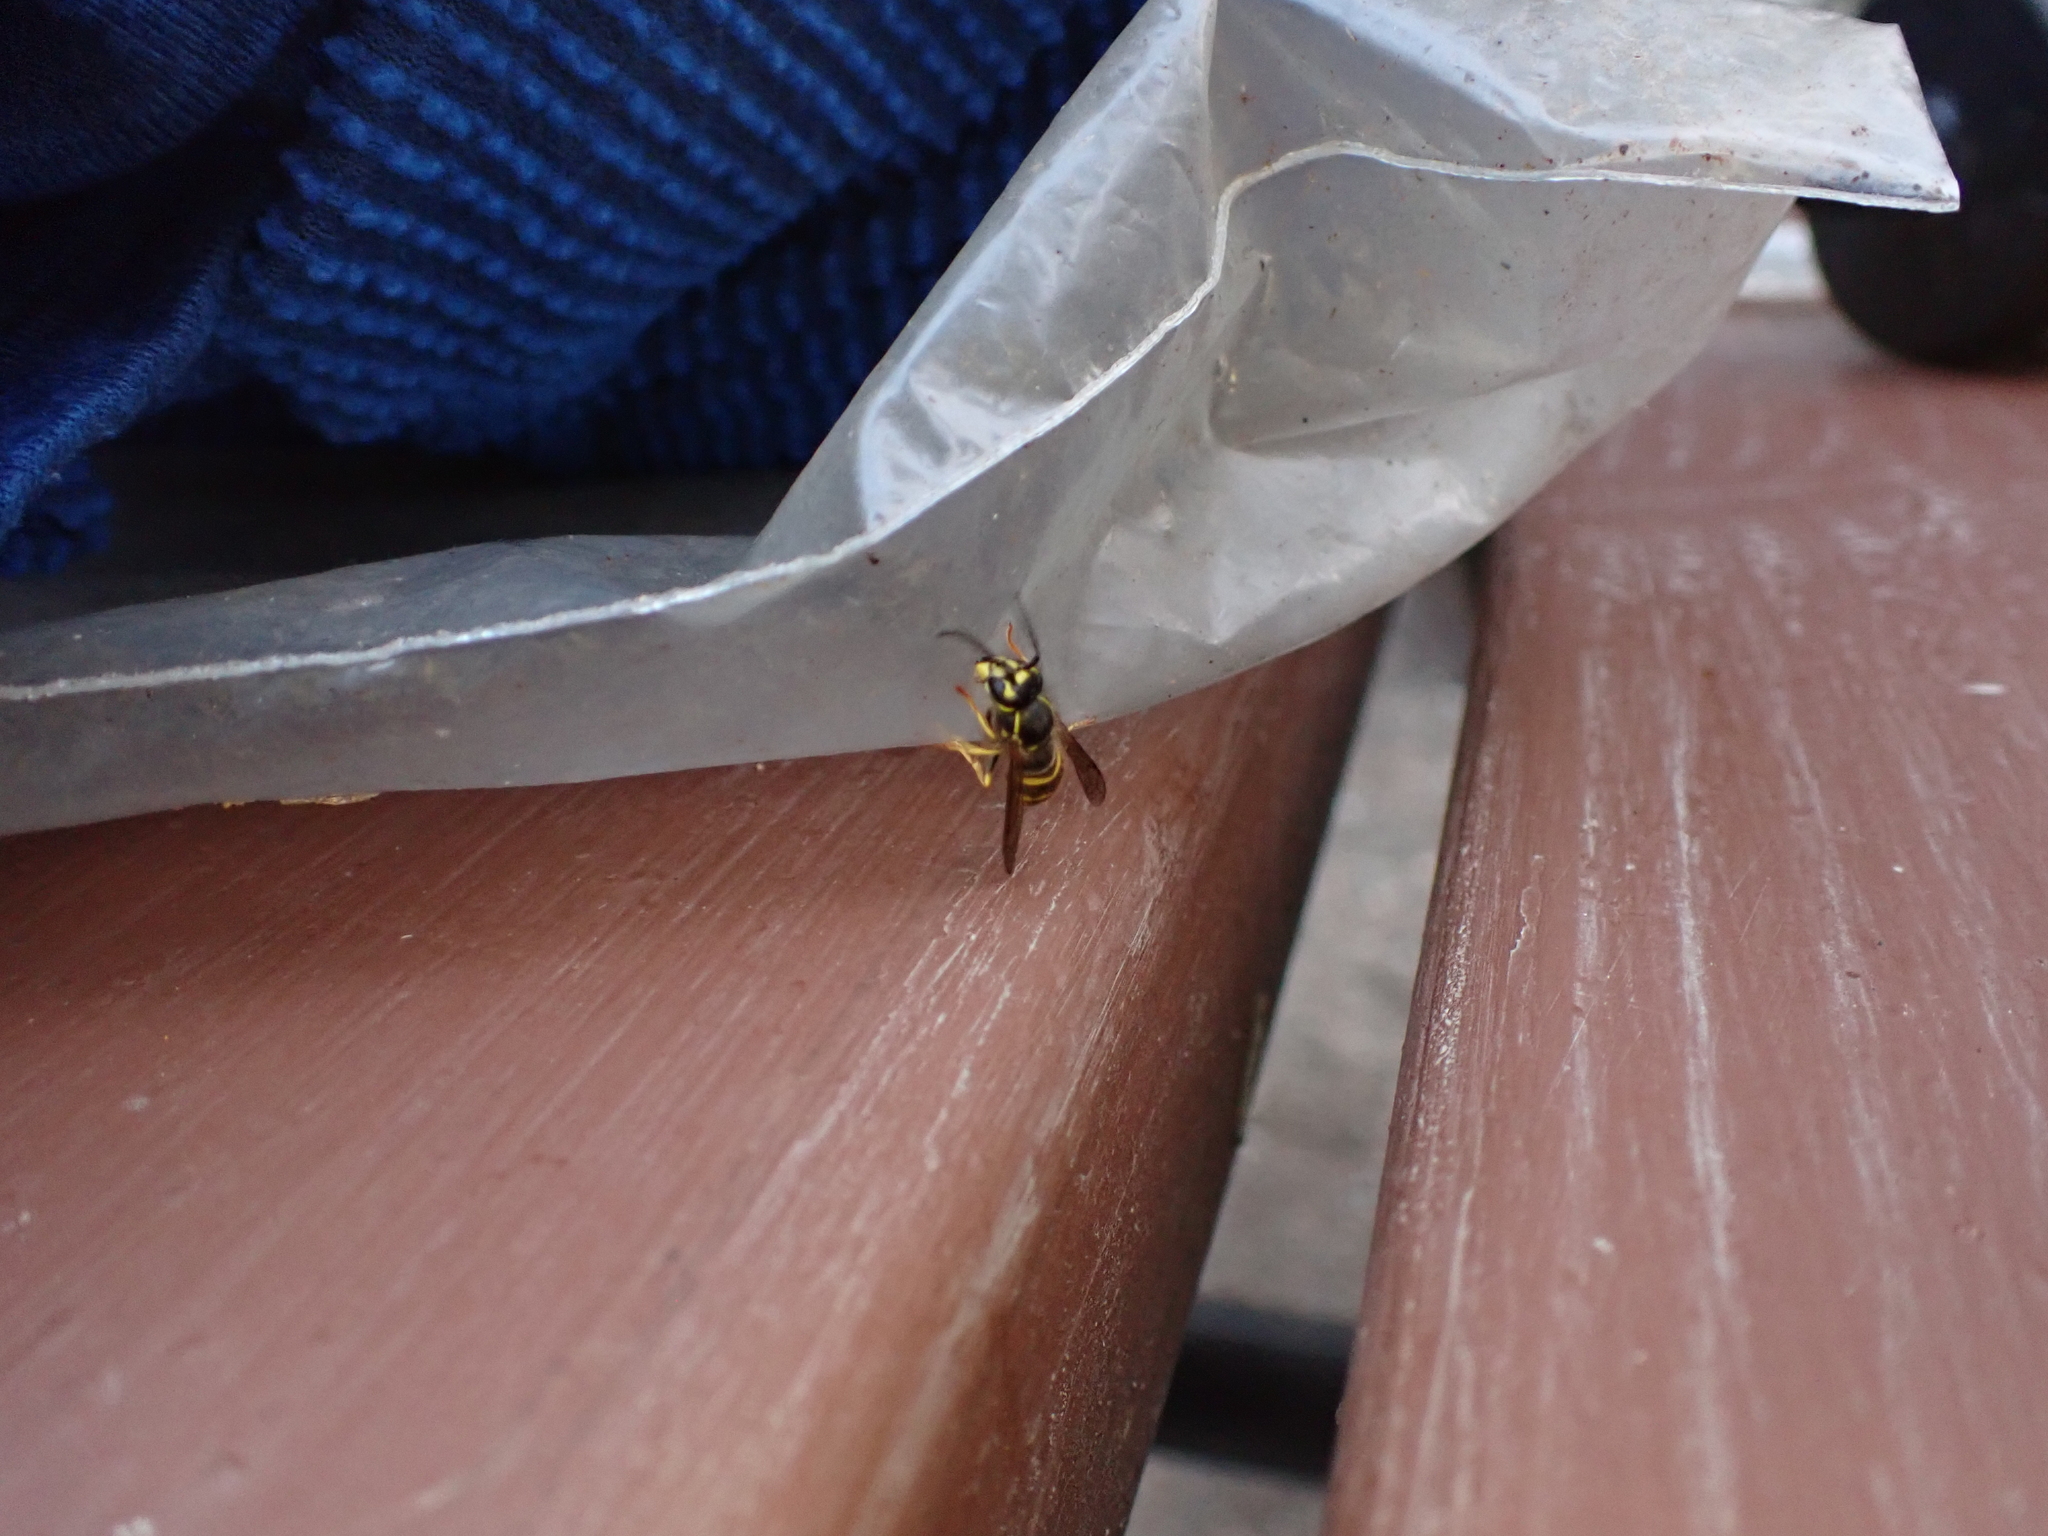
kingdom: Animalia
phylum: Arthropoda
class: Insecta
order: Hymenoptera
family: Vespidae
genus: Vespula
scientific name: Vespula alascensis
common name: Alaska yellowjacket
